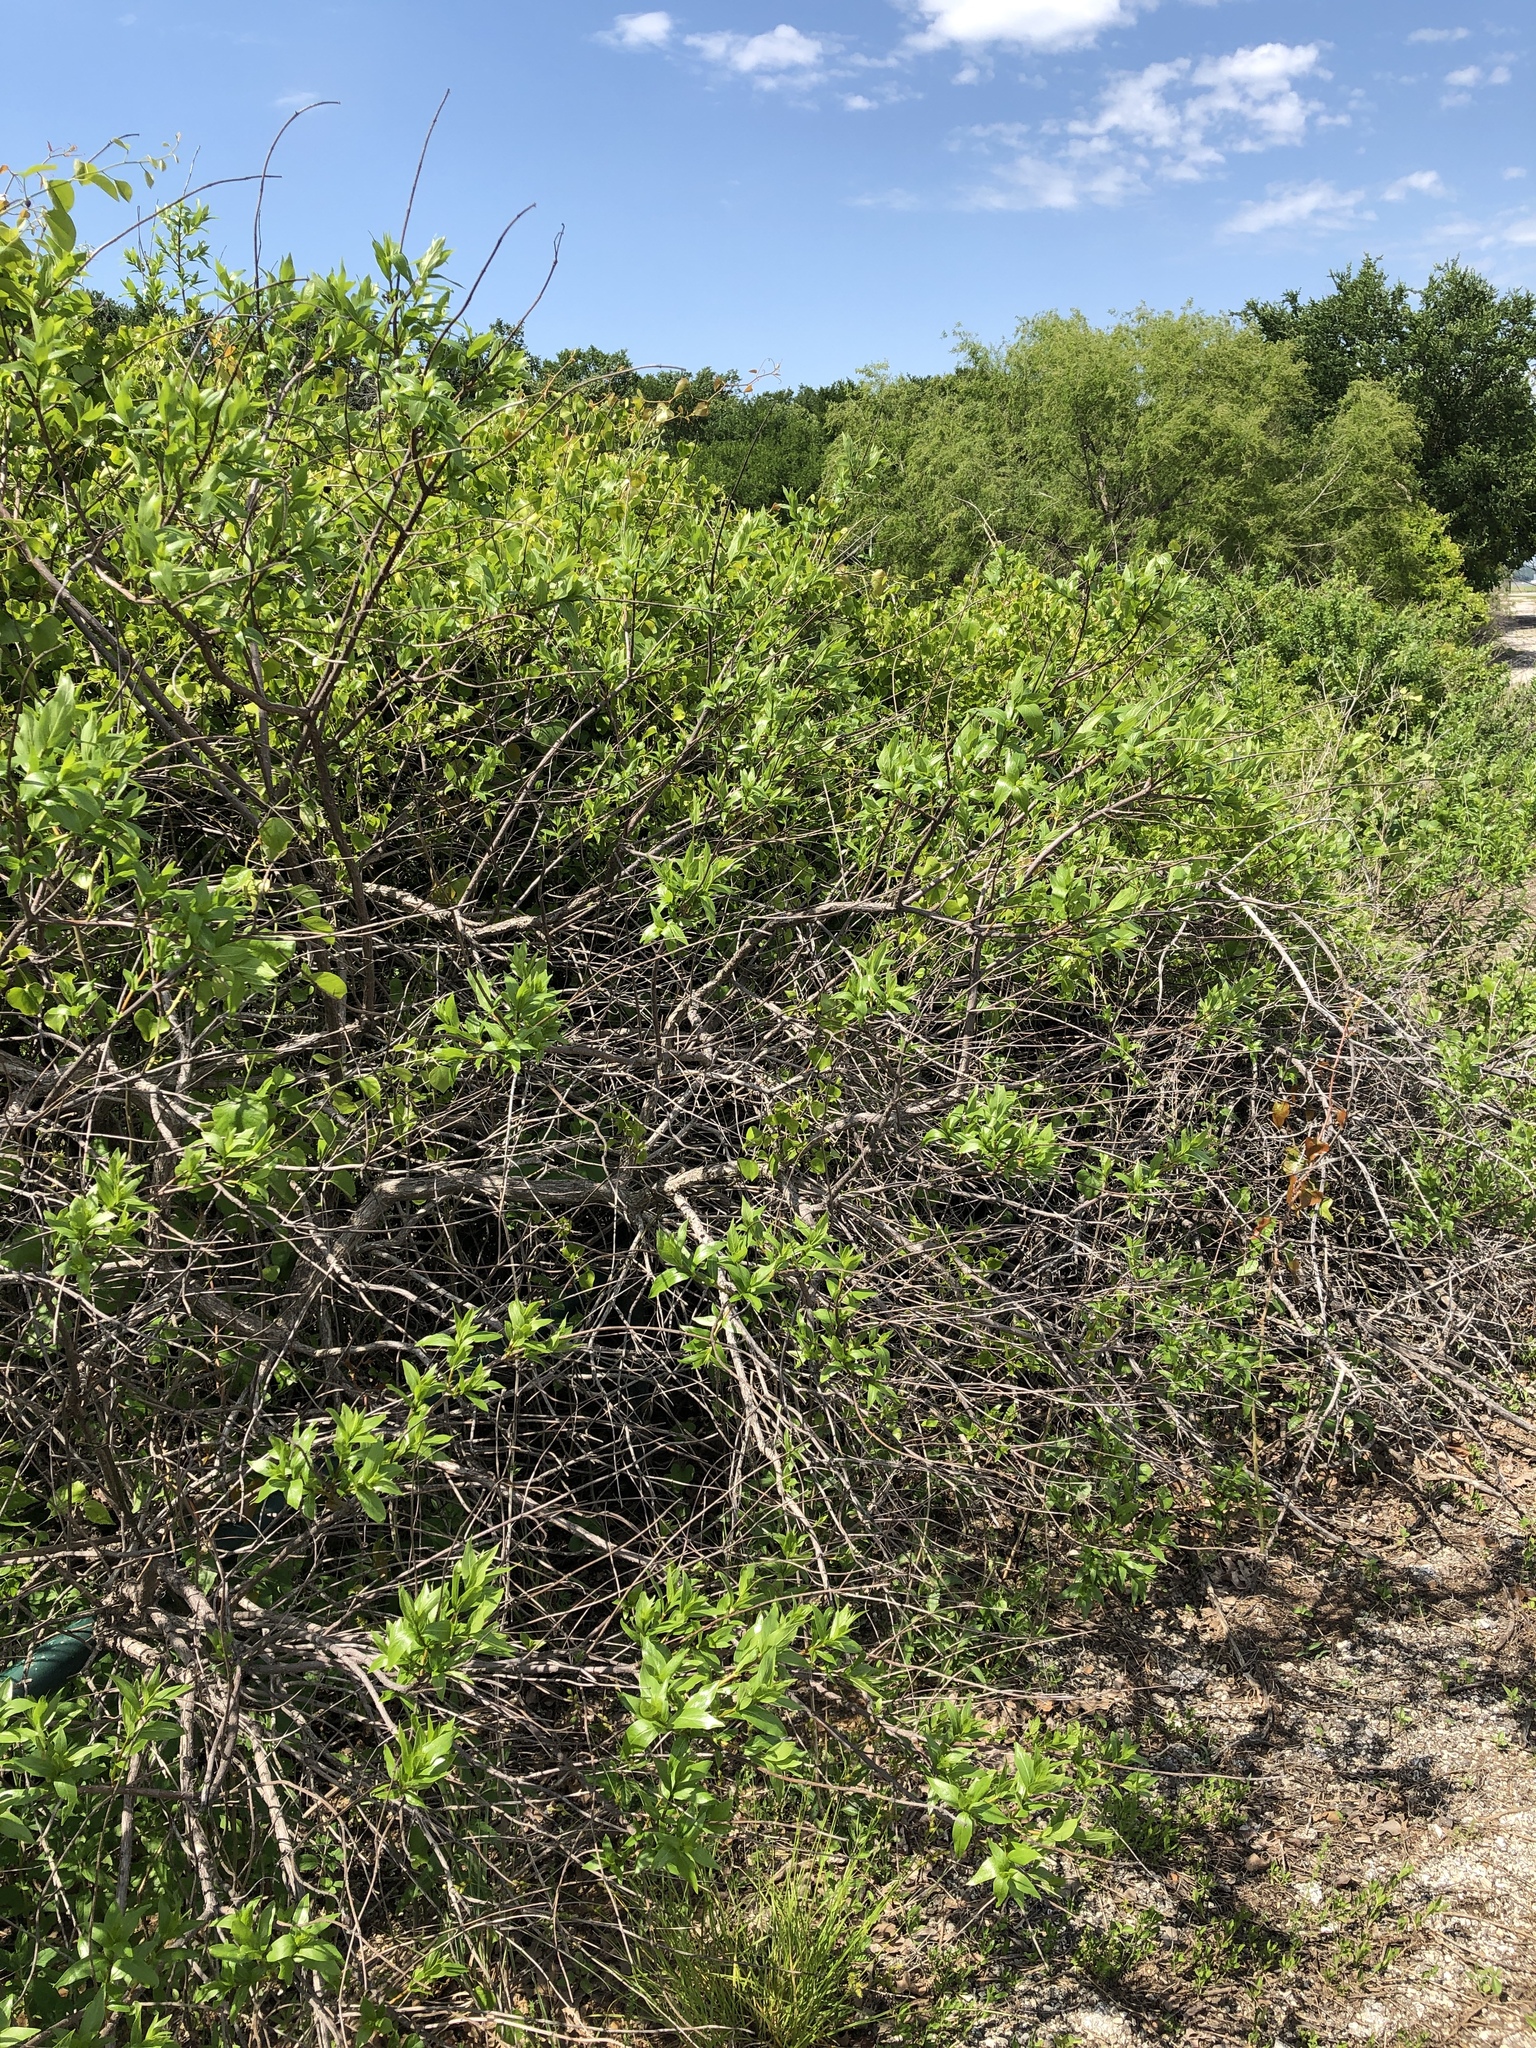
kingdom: Plantae
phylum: Tracheophyta
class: Magnoliopsida
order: Gentianales
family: Rubiaceae
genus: Cephalanthus
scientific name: Cephalanthus occidentalis
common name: Button-willow
